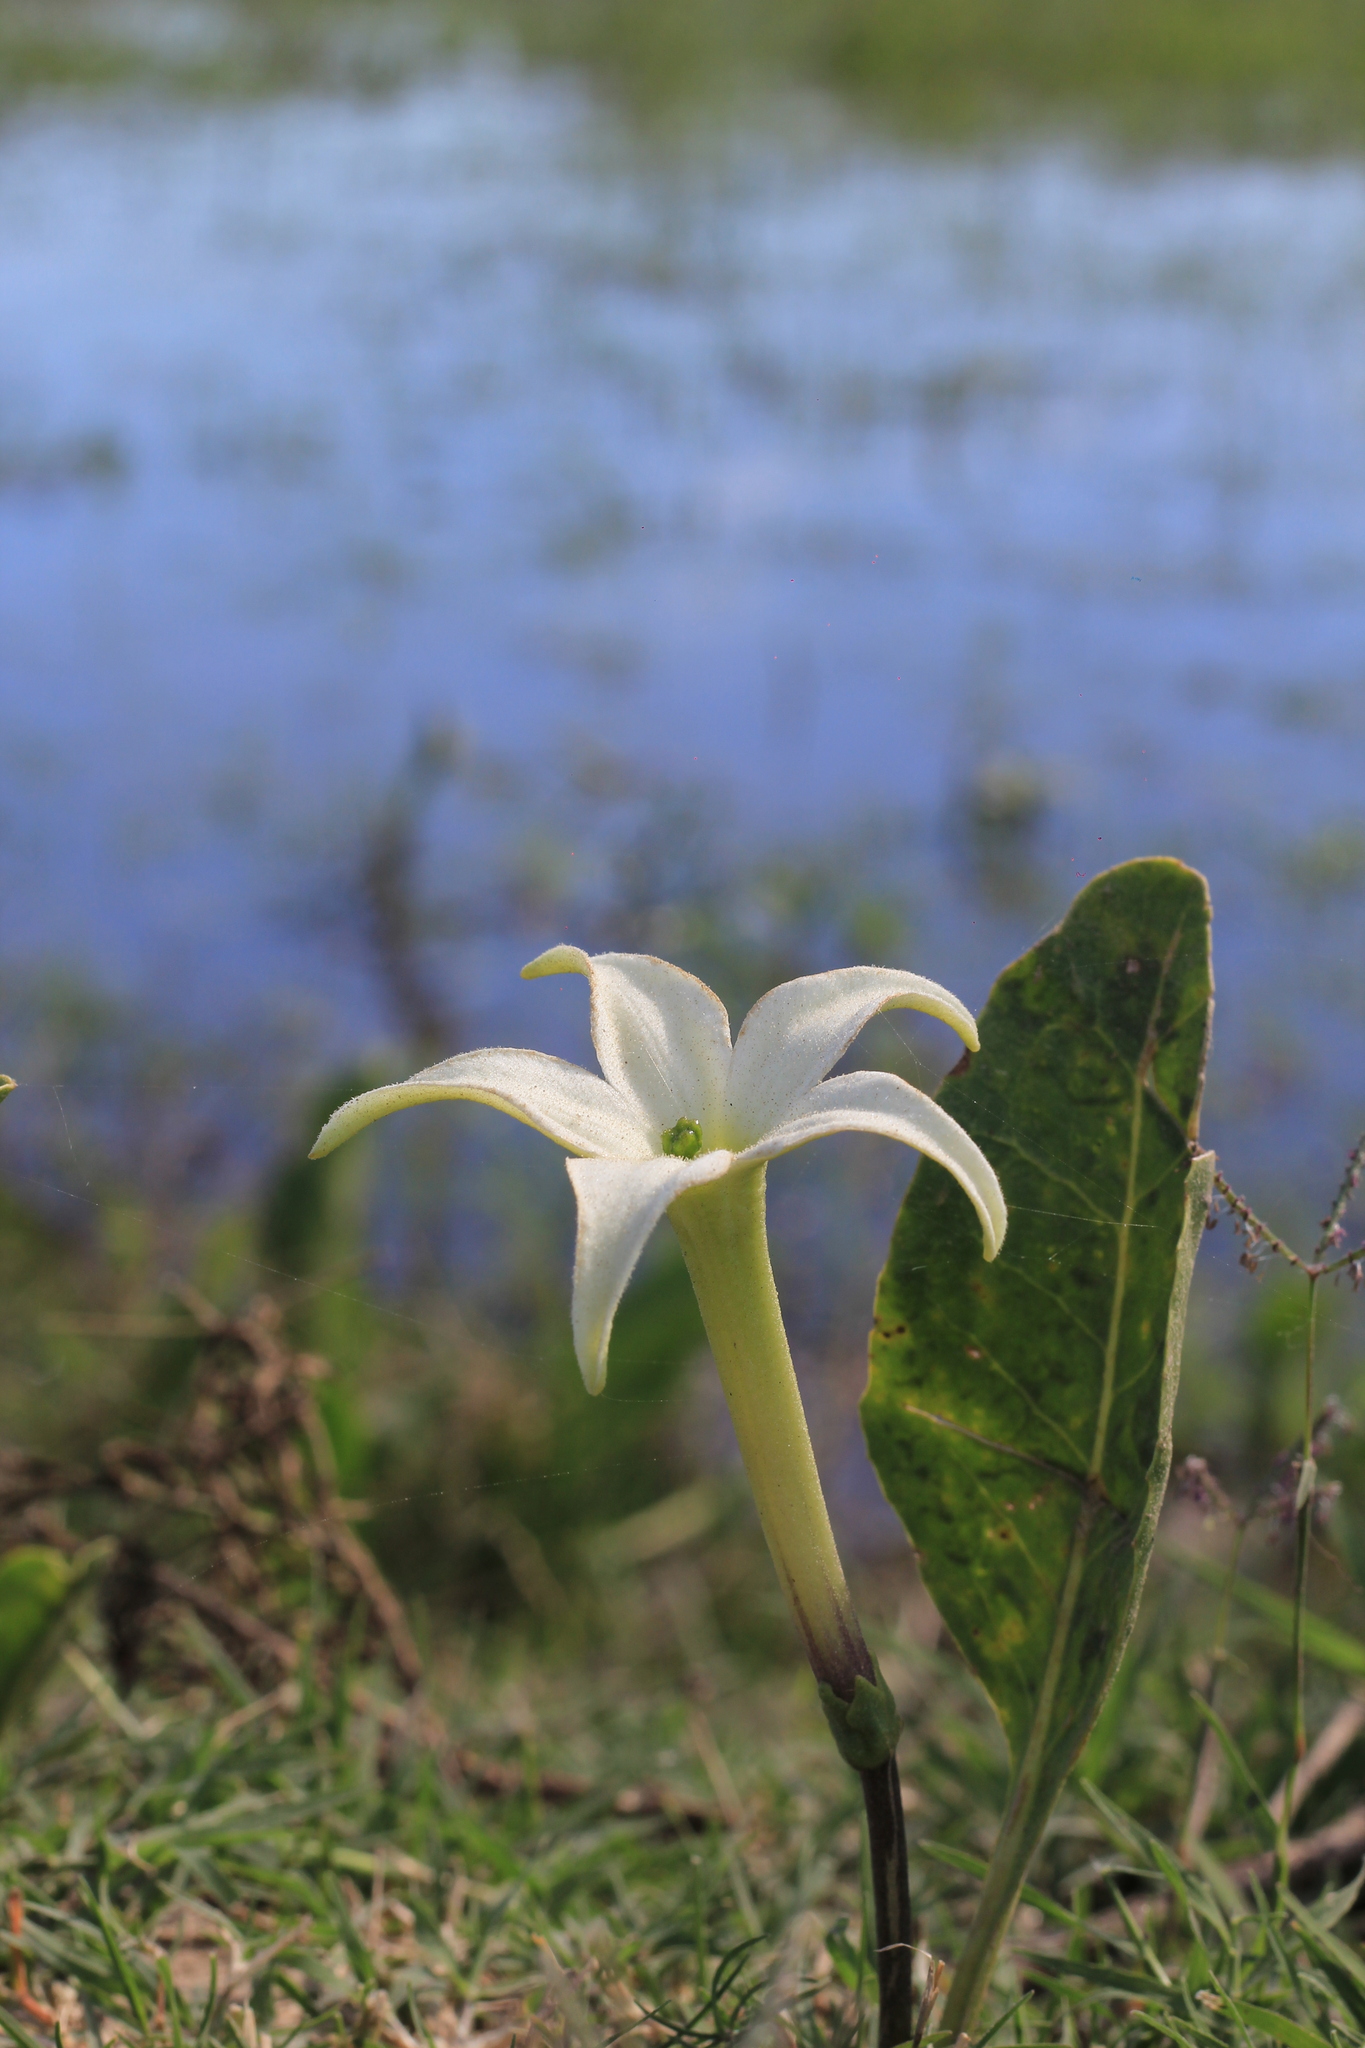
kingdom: Plantae
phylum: Tracheophyta
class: Magnoliopsida
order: Solanales
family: Solanaceae
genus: Jaborosa
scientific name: Jaborosa integrifolia
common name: Springblossom
